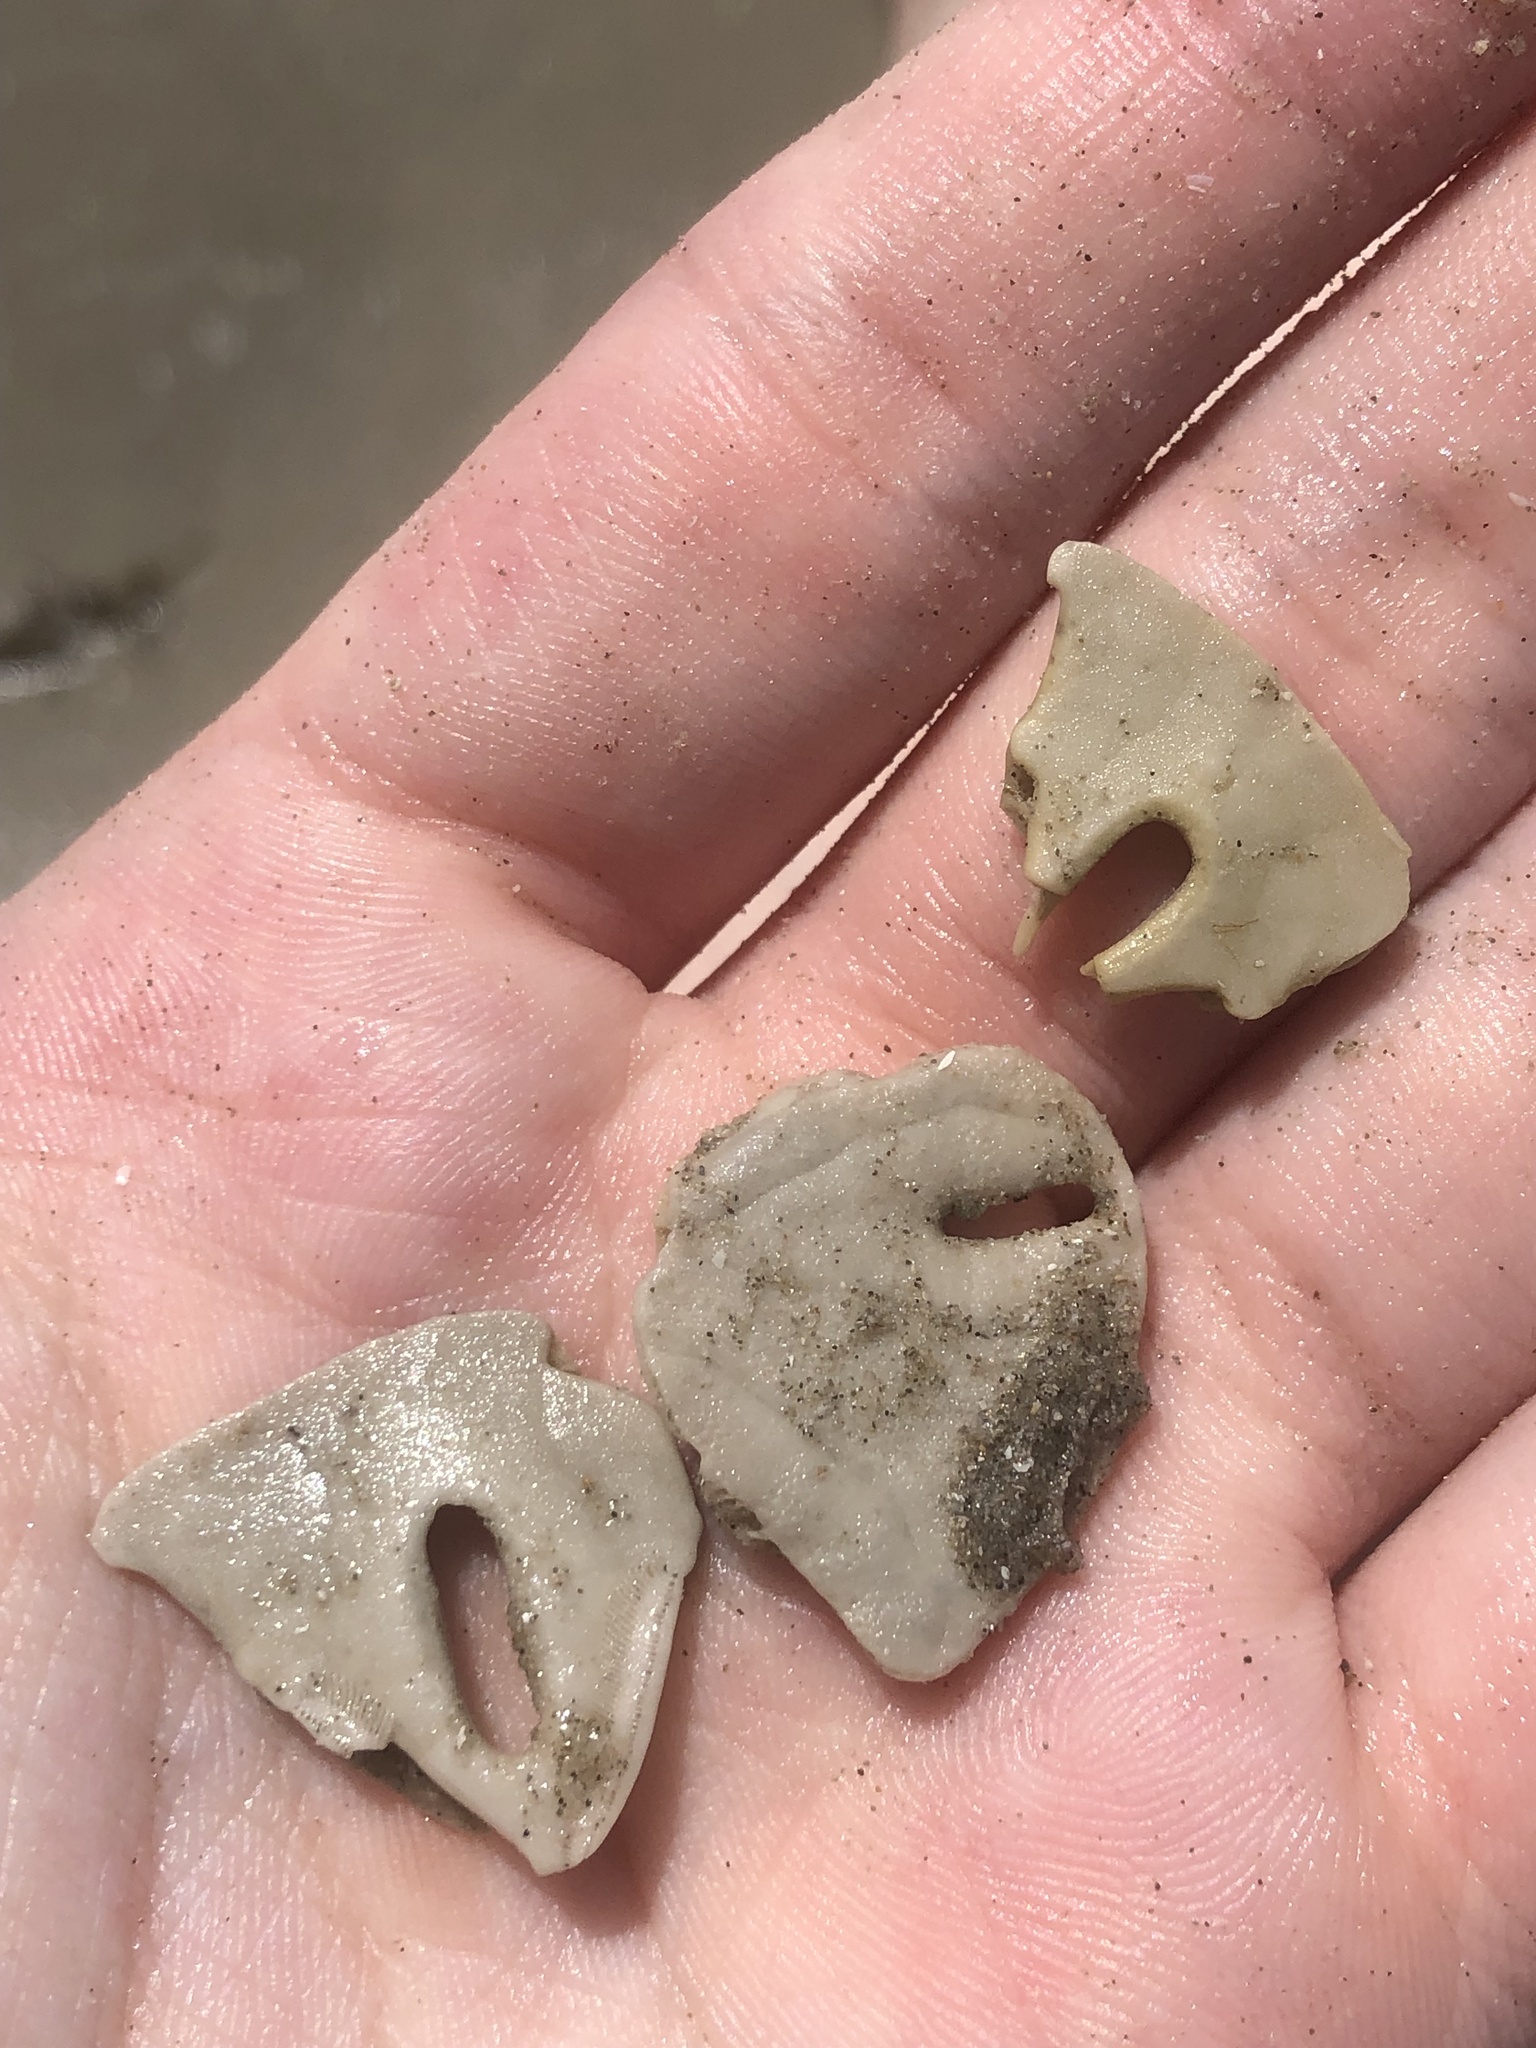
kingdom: Animalia
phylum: Echinodermata
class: Echinoidea
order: Echinolampadacea
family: Mellitidae
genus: Mellita
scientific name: Mellita quinquiesperforata
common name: Sand dollar
